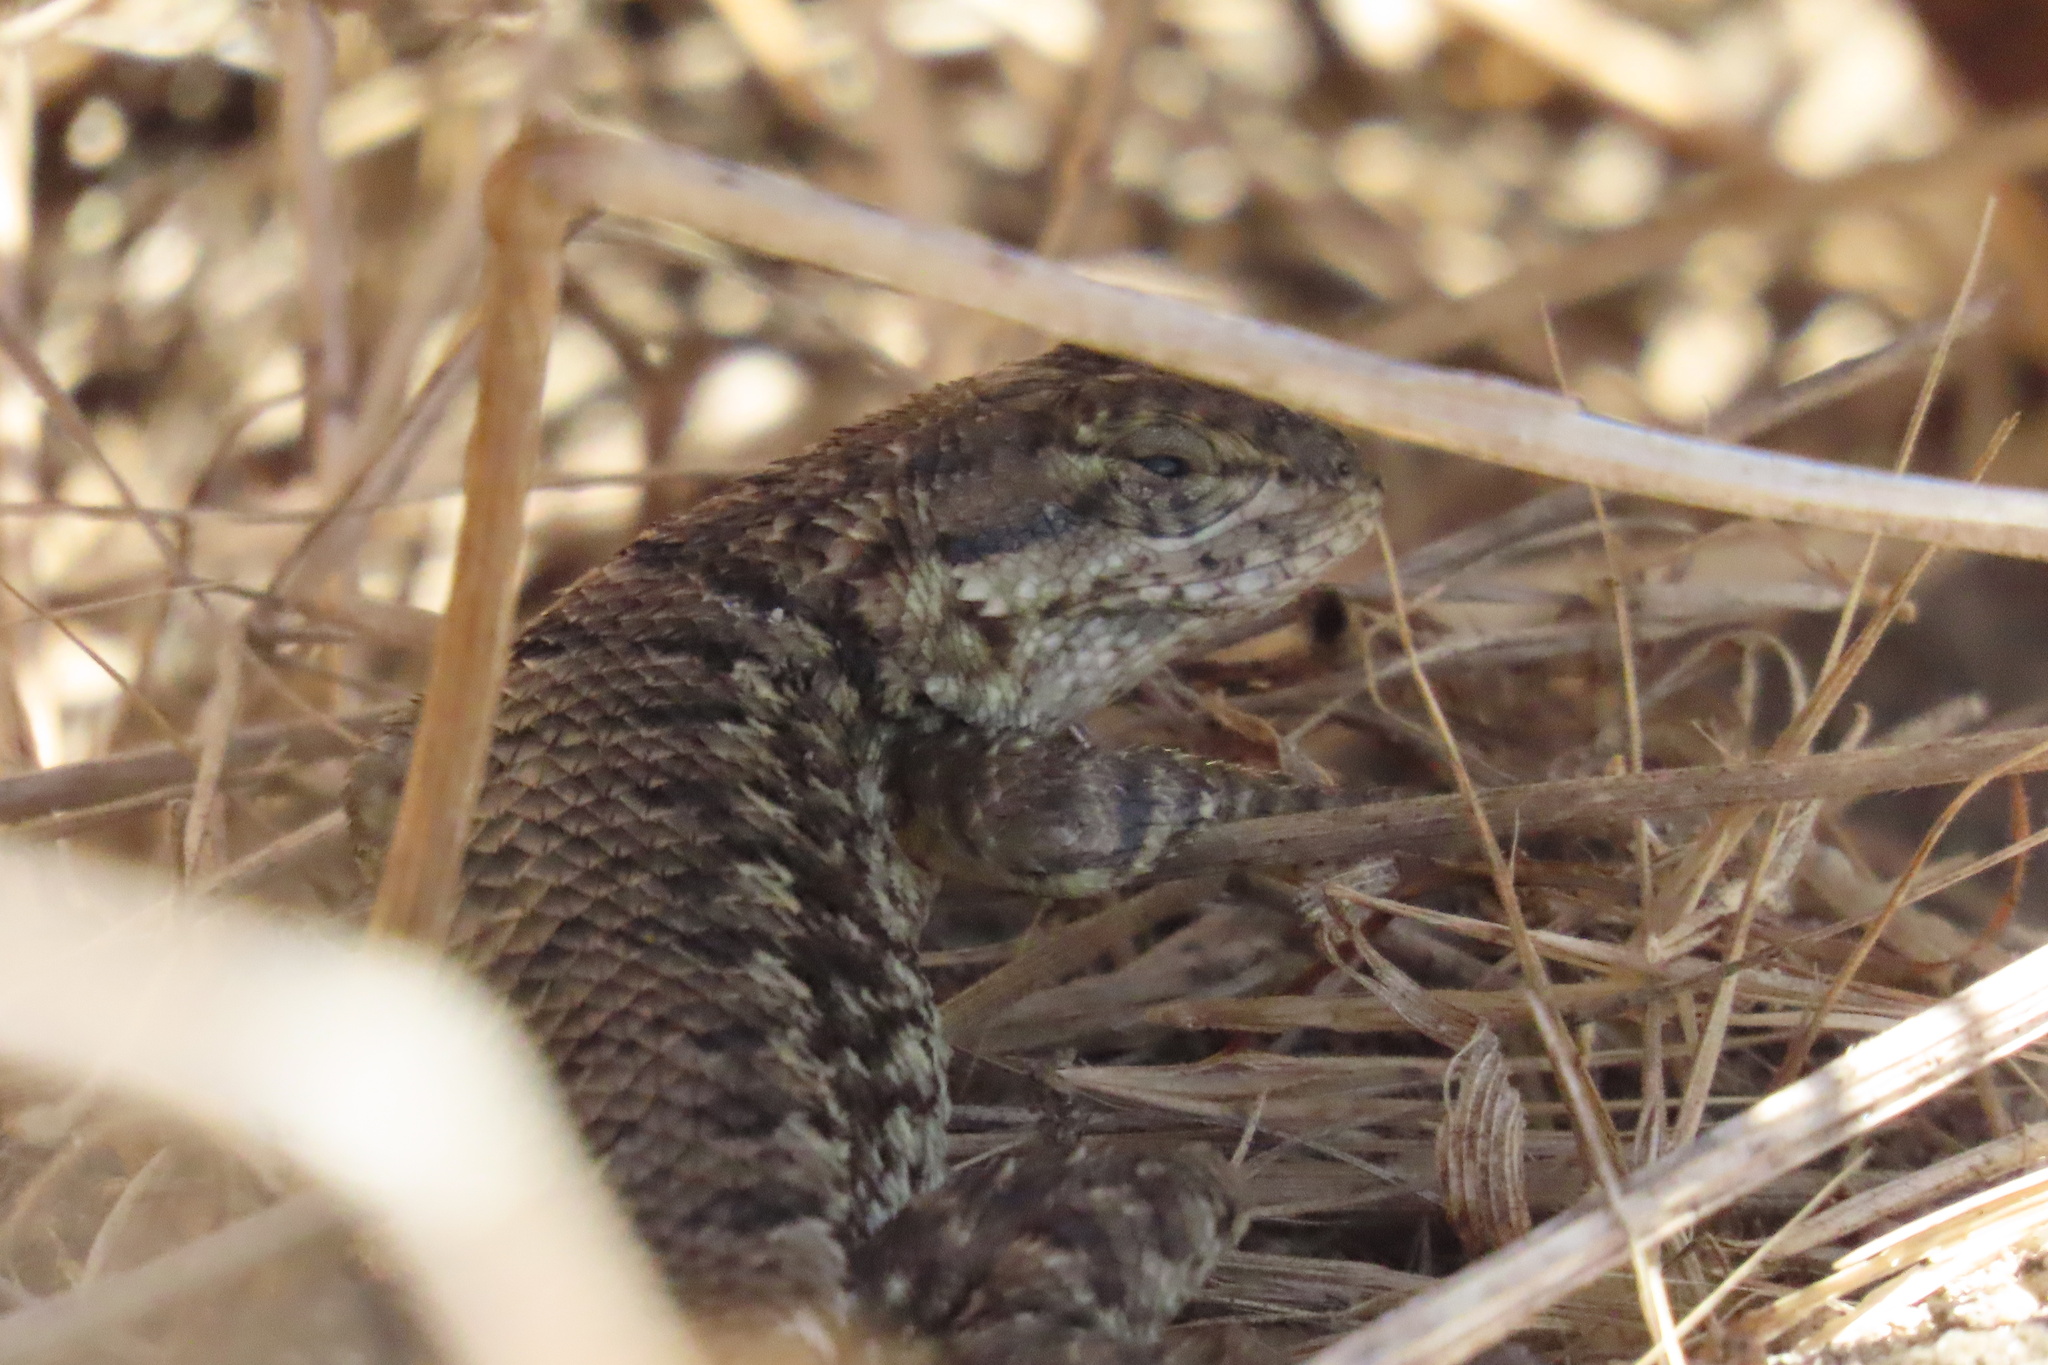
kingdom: Animalia
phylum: Chordata
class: Squamata
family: Phrynosomatidae
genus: Sceloporus
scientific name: Sceloporus occidentalis
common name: Western fence lizard
